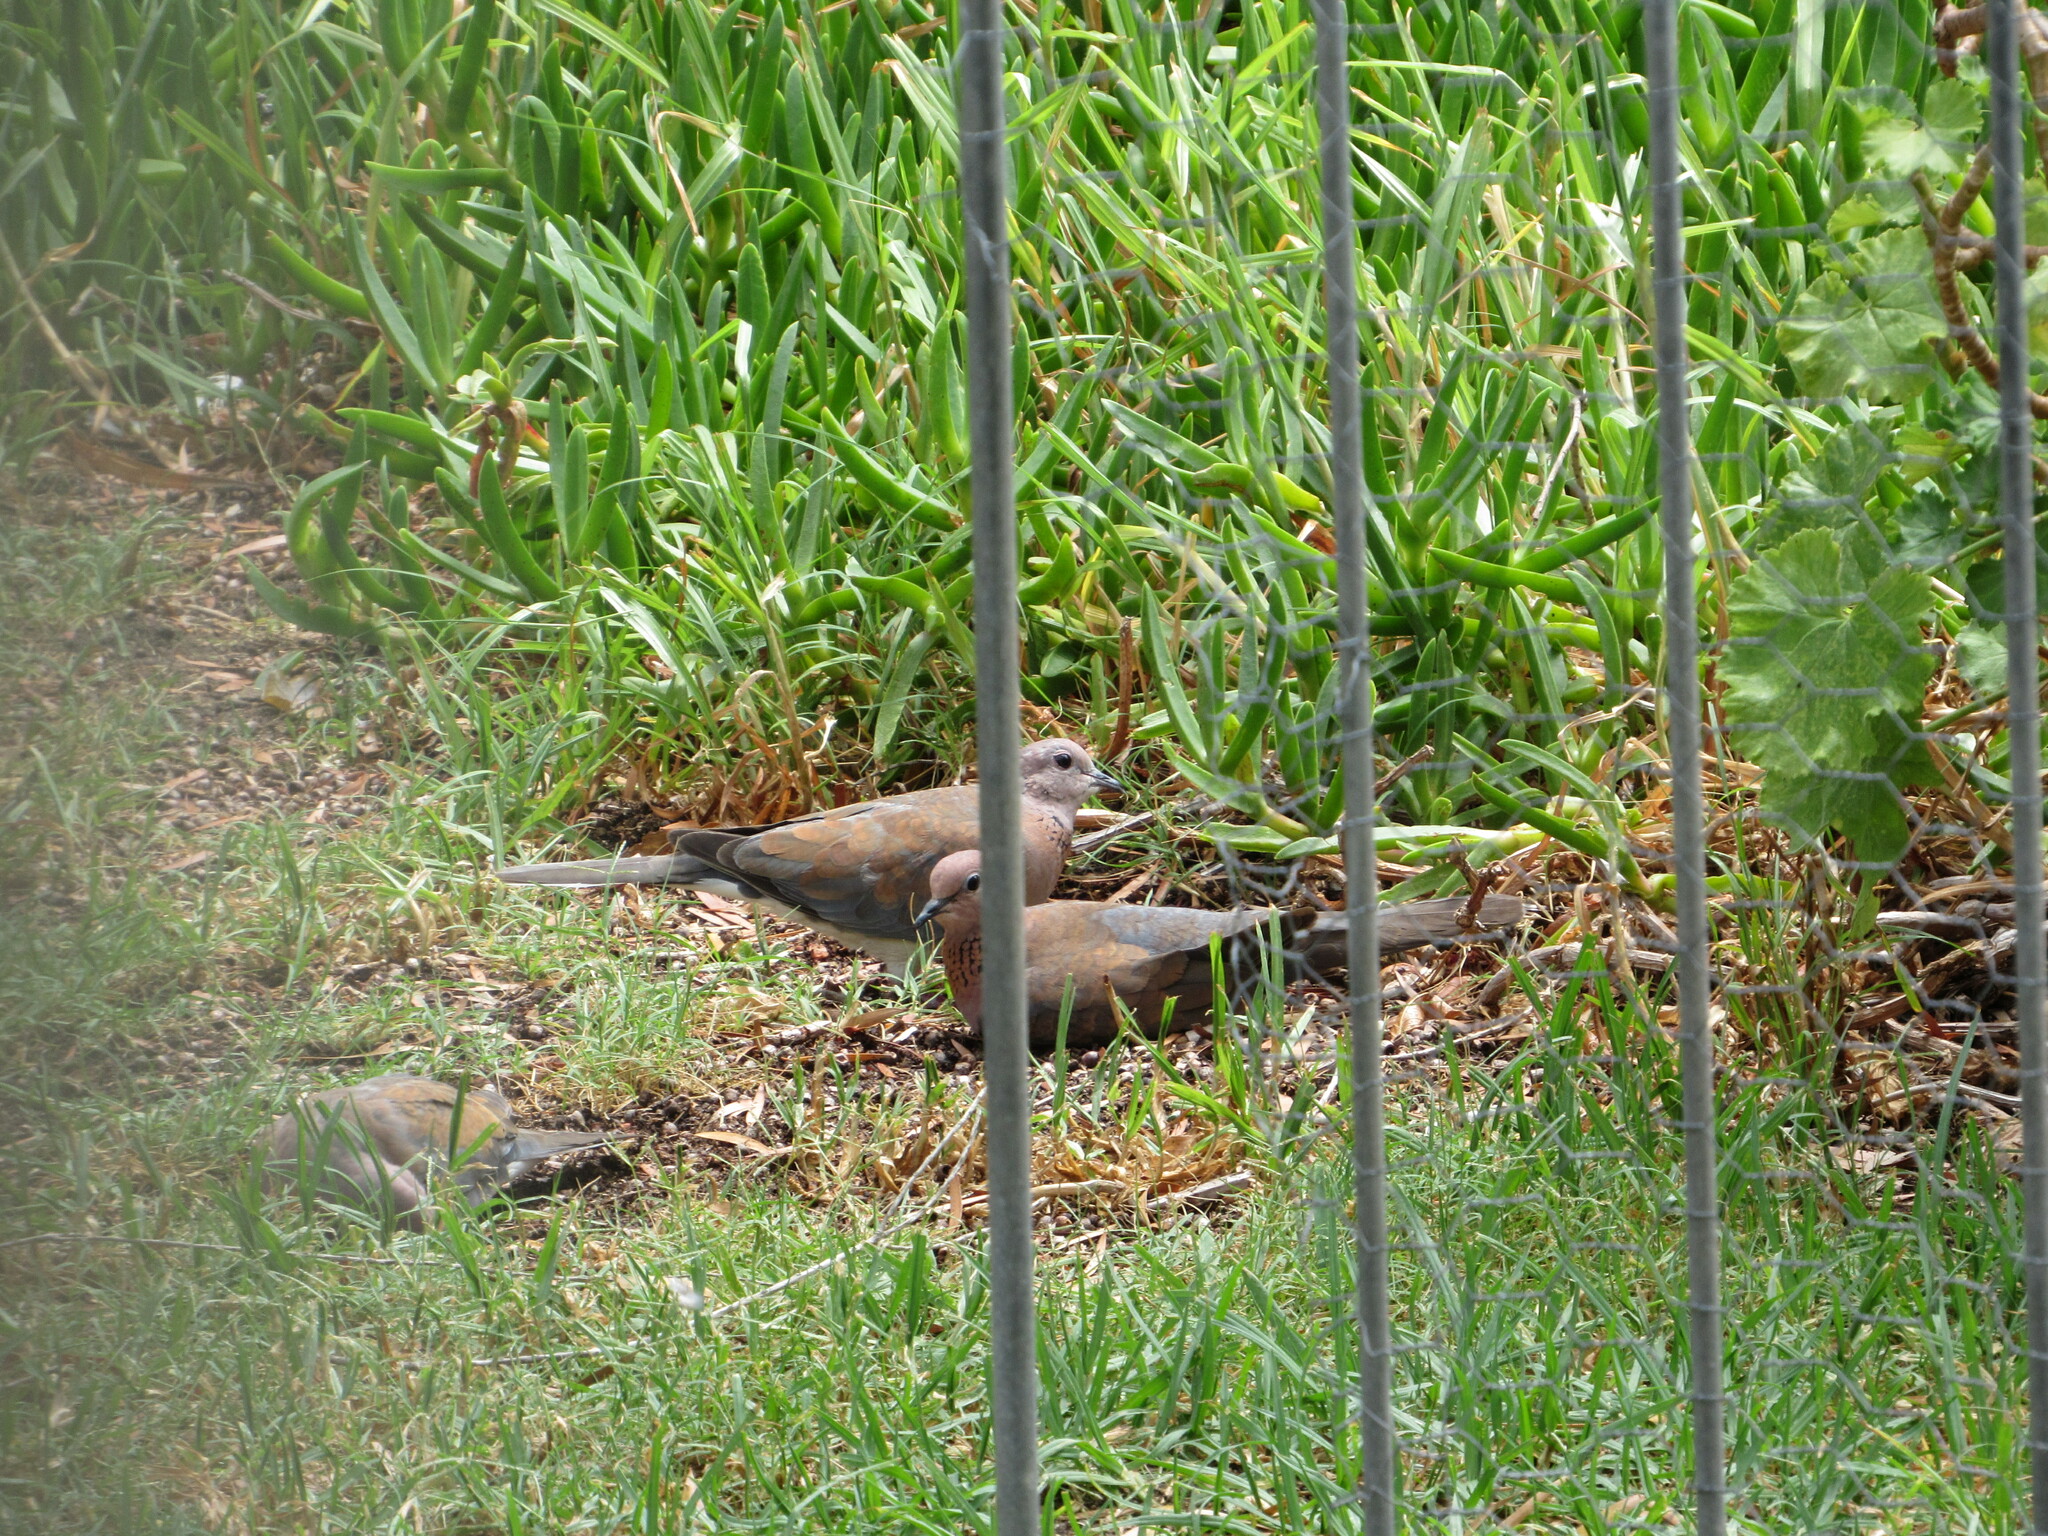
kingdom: Animalia
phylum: Chordata
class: Aves
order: Columbiformes
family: Columbidae
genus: Spilopelia
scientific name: Spilopelia senegalensis
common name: Laughing dove
